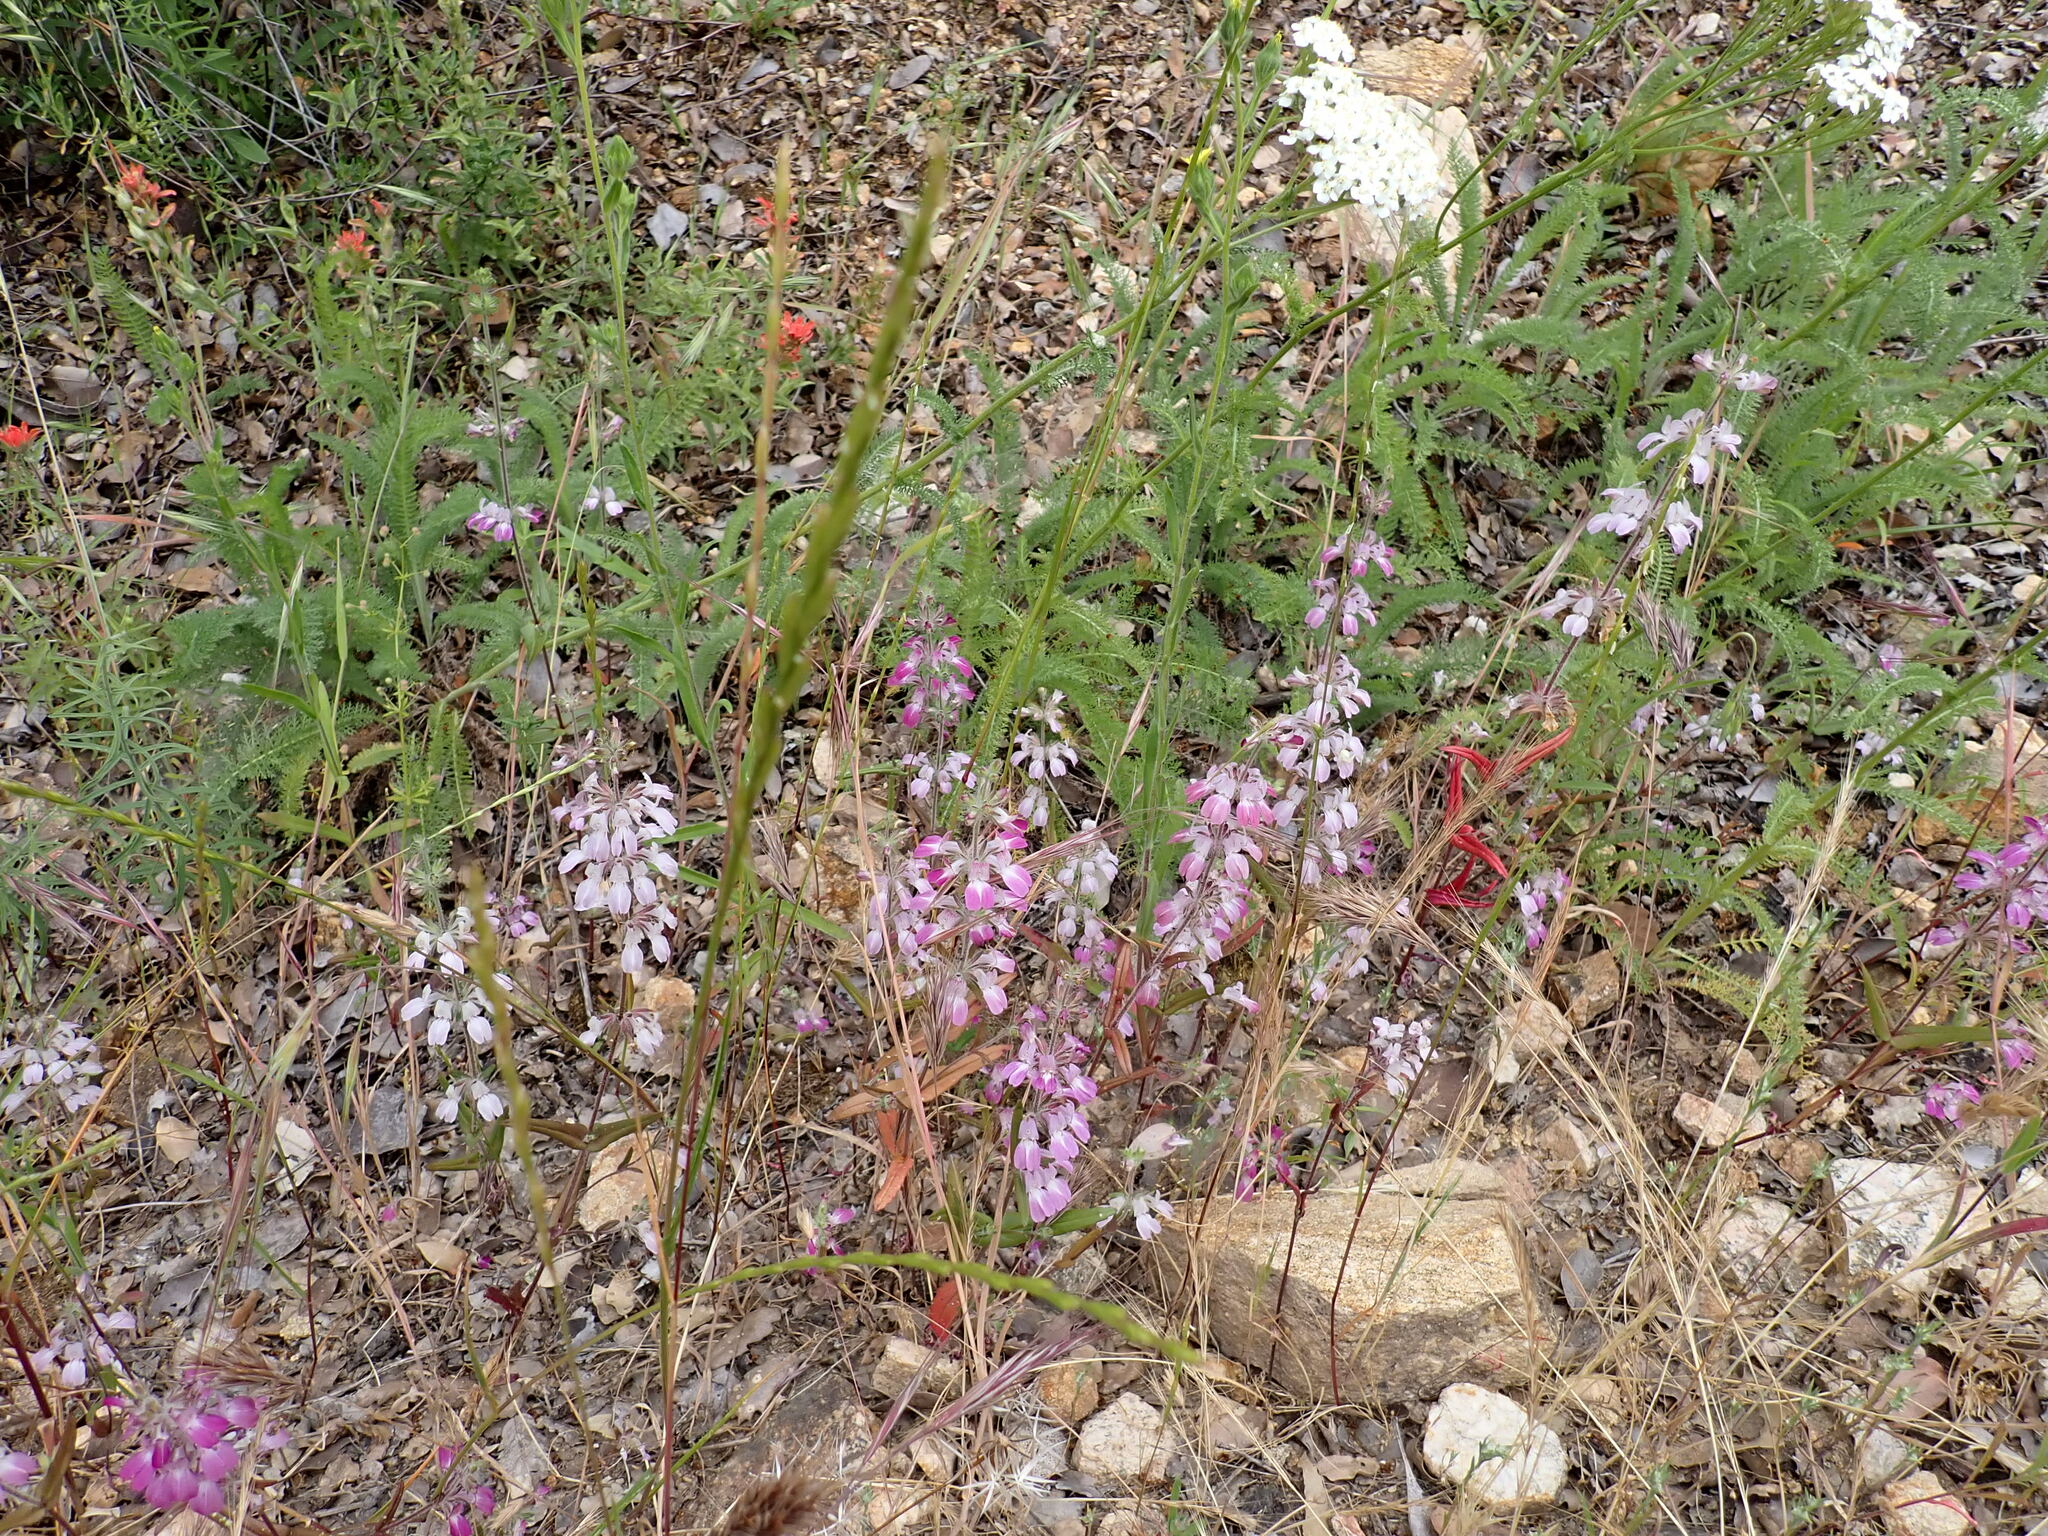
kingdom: Plantae
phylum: Tracheophyta
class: Magnoliopsida
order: Lamiales
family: Plantaginaceae
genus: Collinsia
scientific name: Collinsia heterophylla
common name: Chinese-houses
